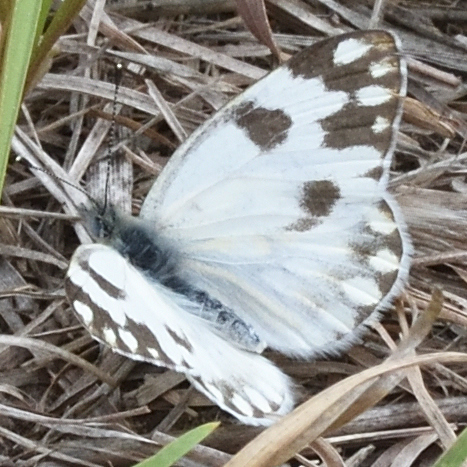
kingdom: Animalia
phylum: Arthropoda
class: Insecta
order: Lepidoptera
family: Pieridae
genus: Pontia
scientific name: Pontia helice
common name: Meadow white
